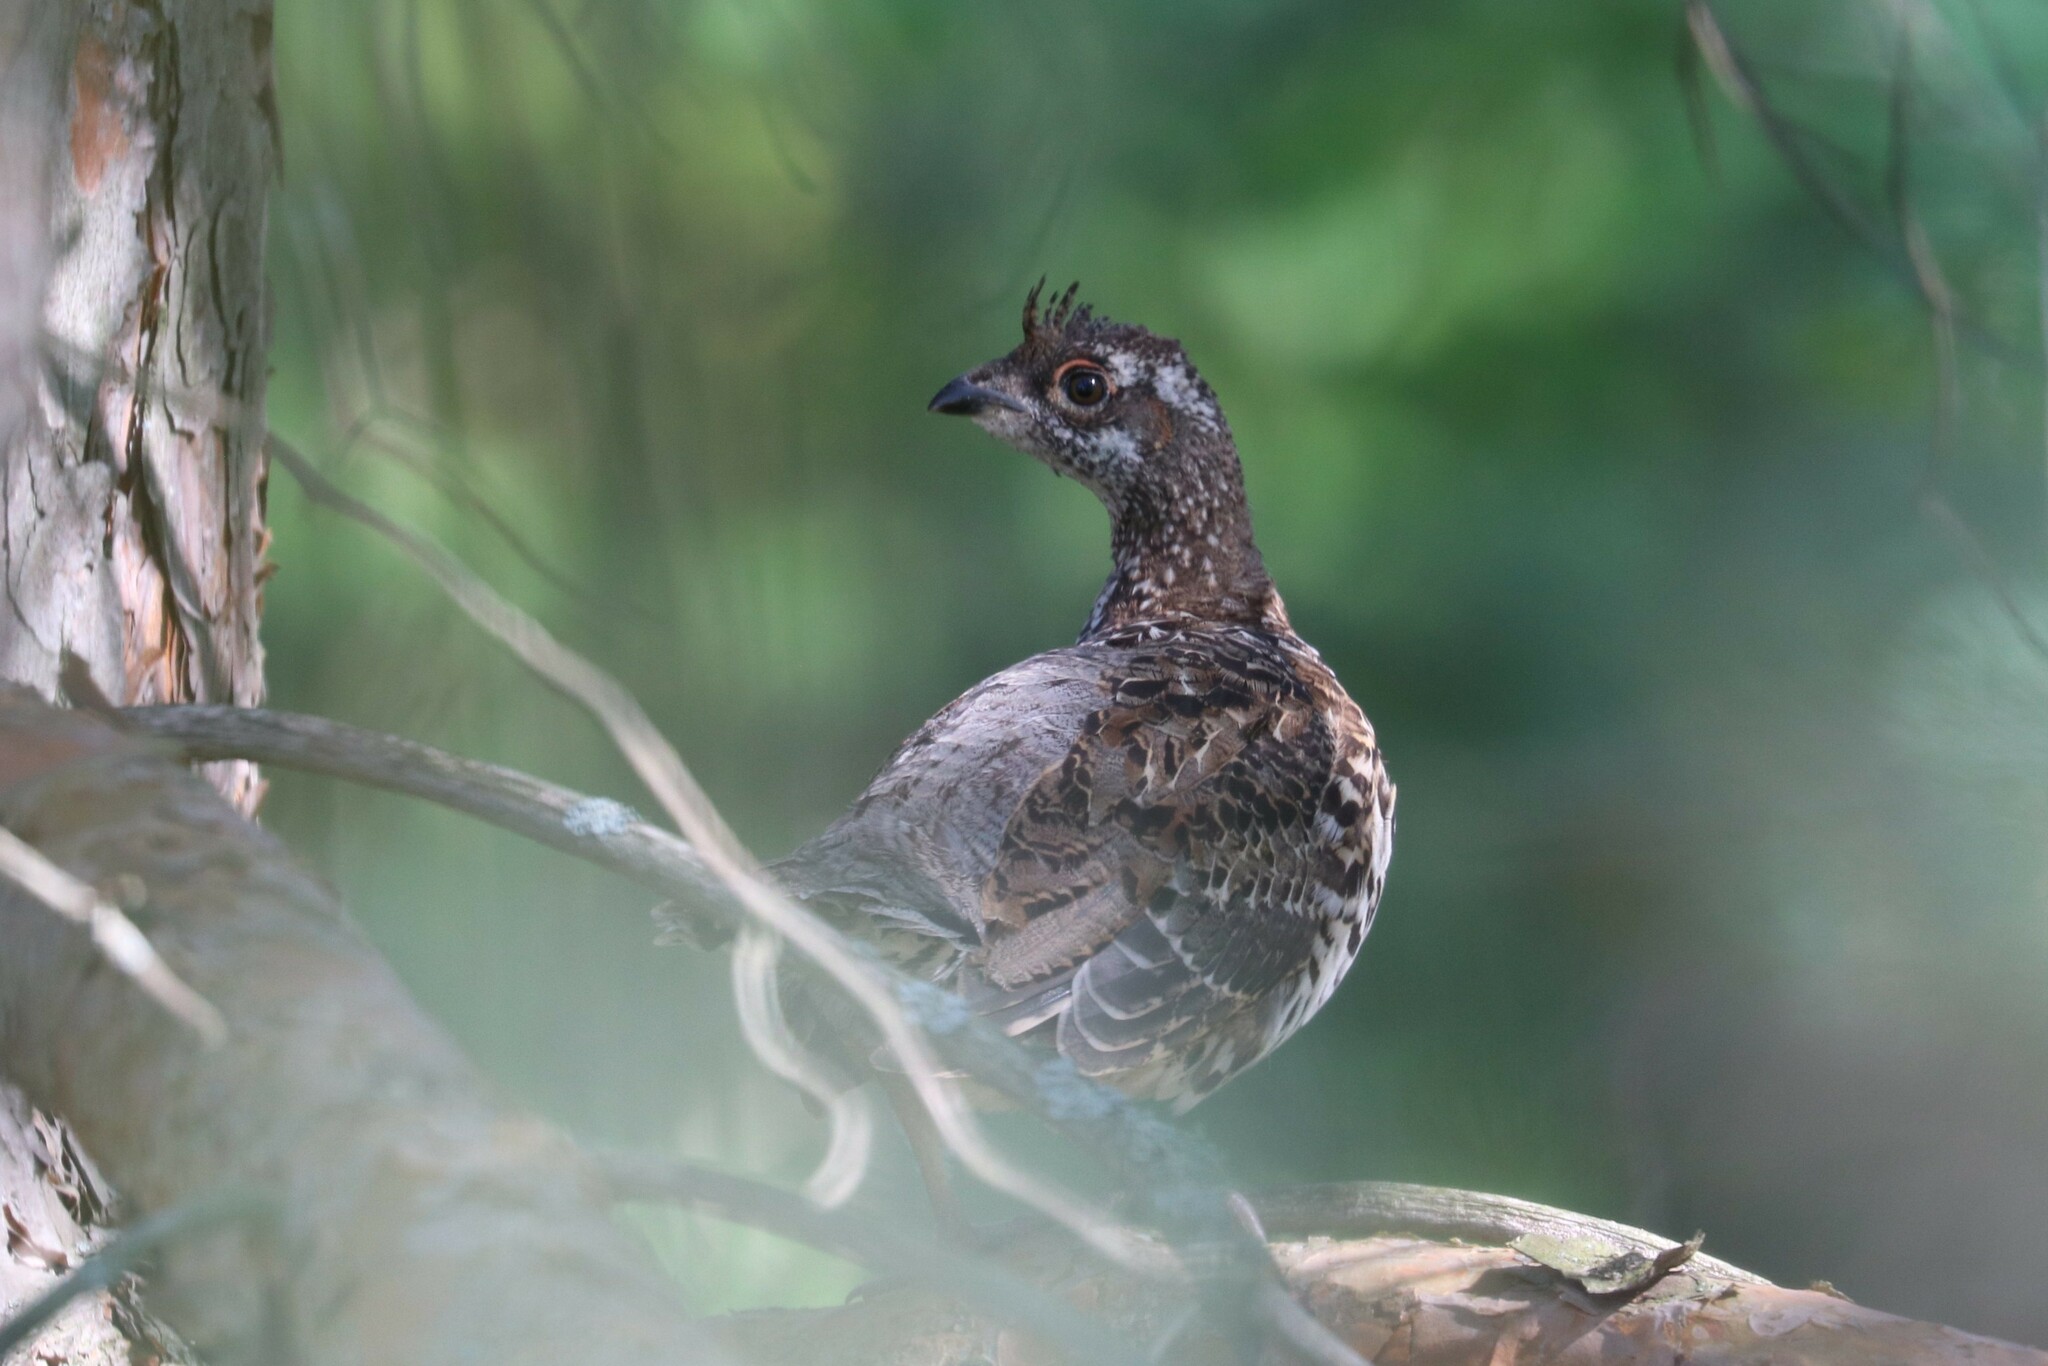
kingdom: Animalia
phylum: Chordata
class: Aves
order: Galliformes
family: Phasianidae
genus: Tetrastes
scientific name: Tetrastes bonasia
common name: Hazel grouse
